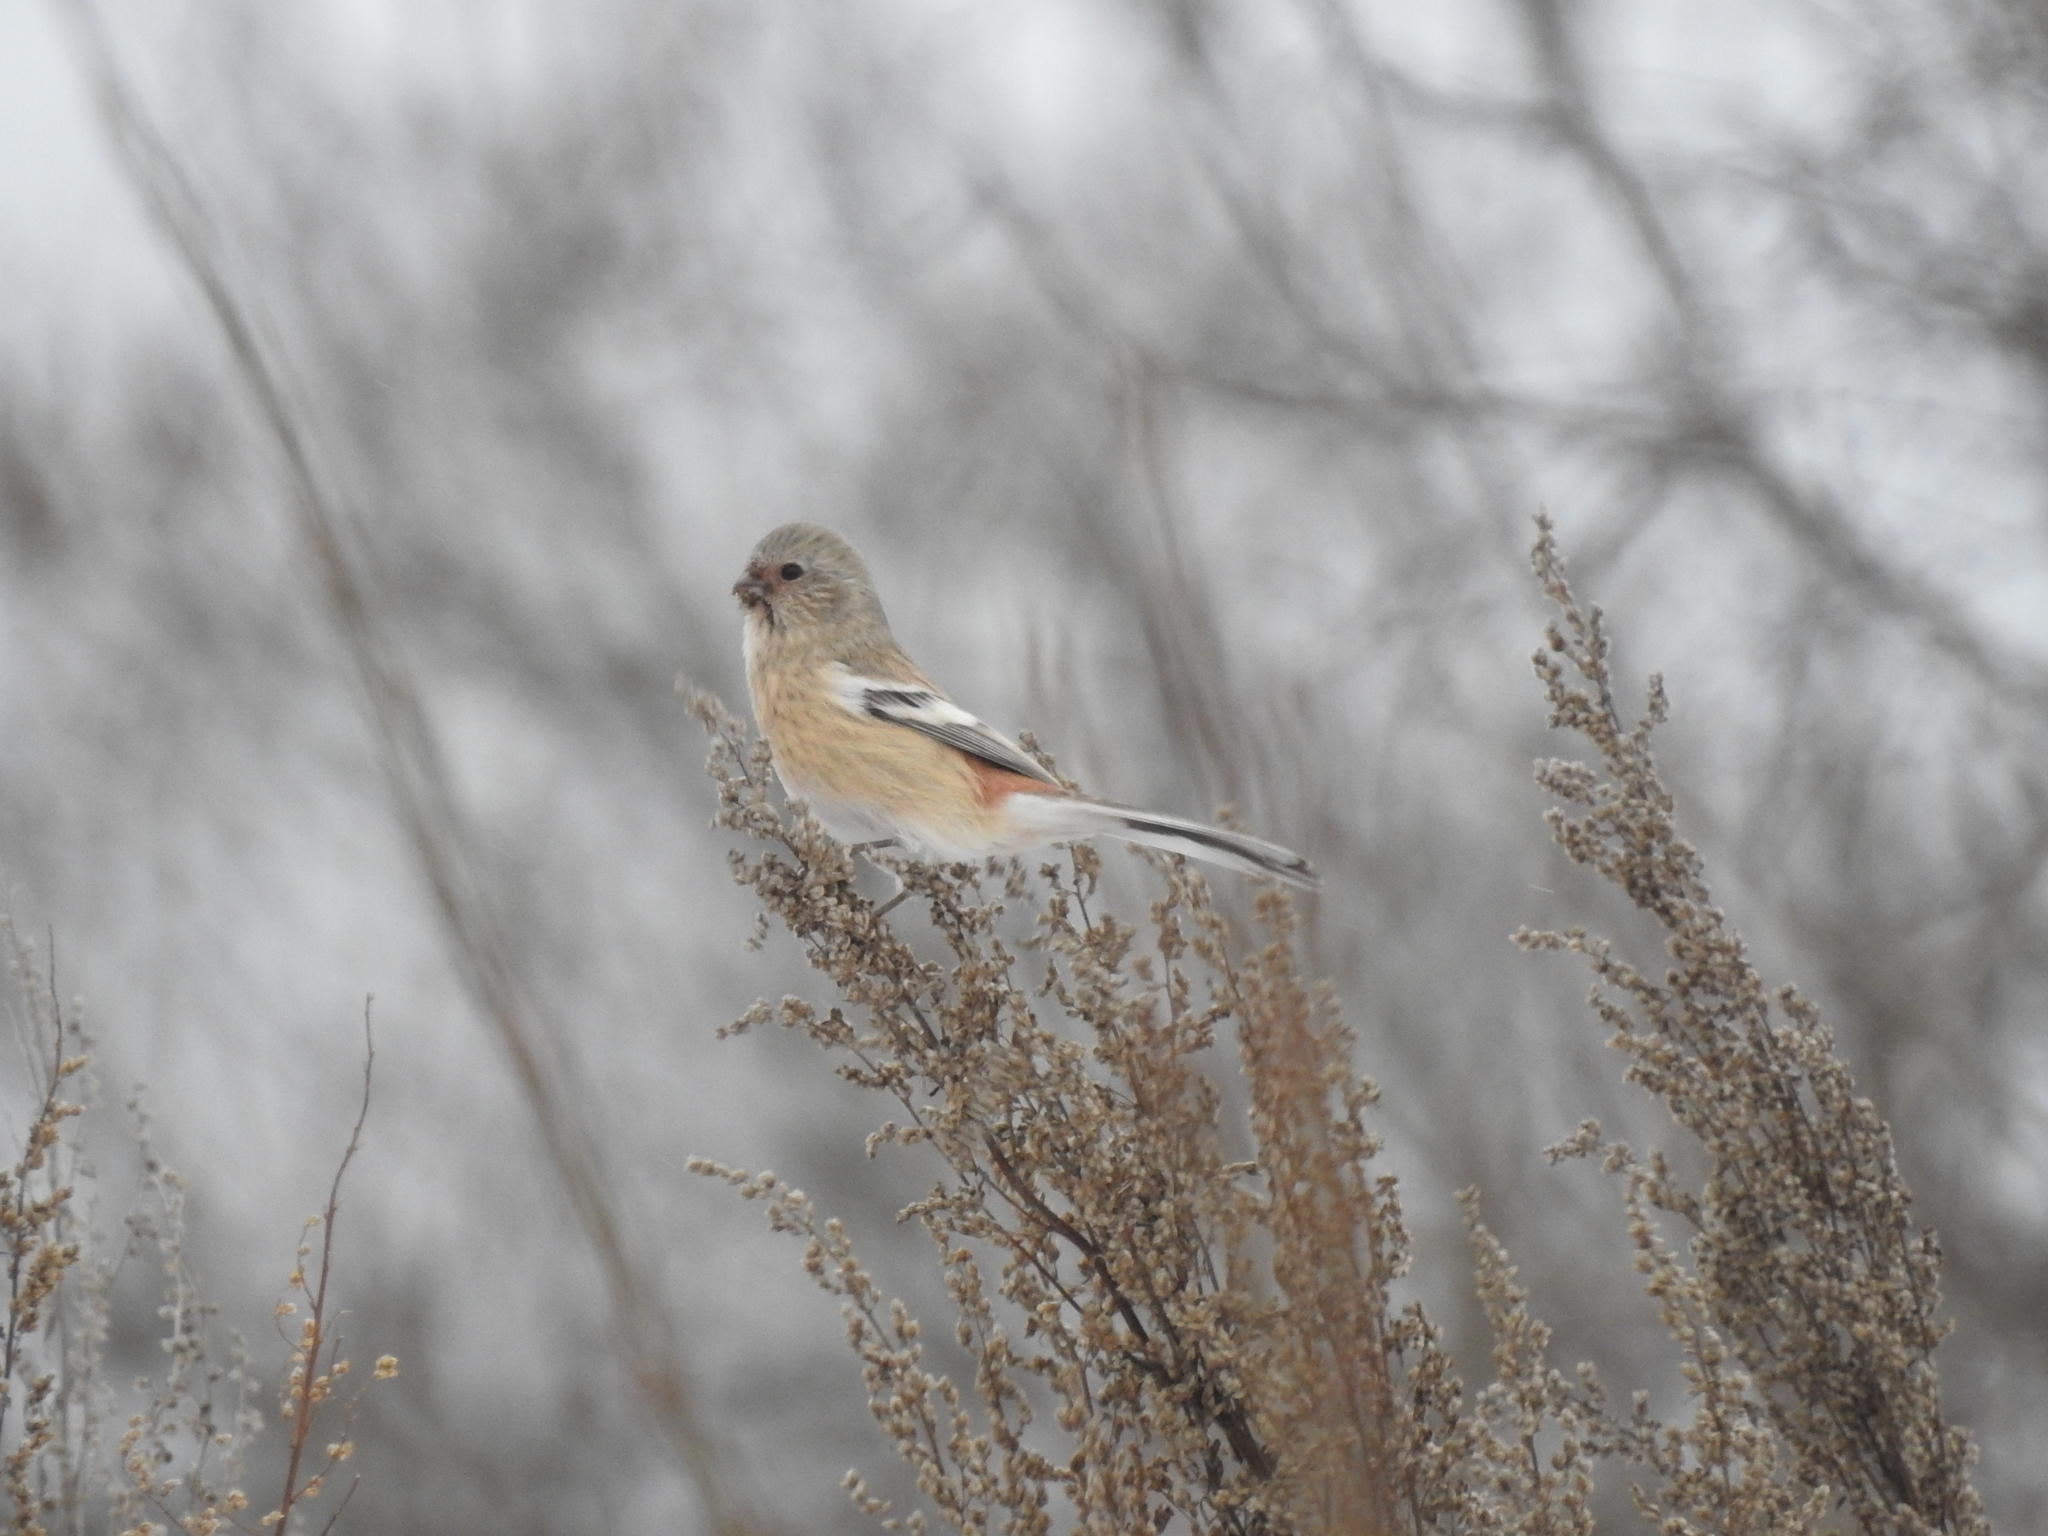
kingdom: Animalia
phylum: Chordata
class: Aves
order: Passeriformes
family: Fringillidae
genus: Carpodacus
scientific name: Carpodacus sibiricus
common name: Long-tailed rosefinch
